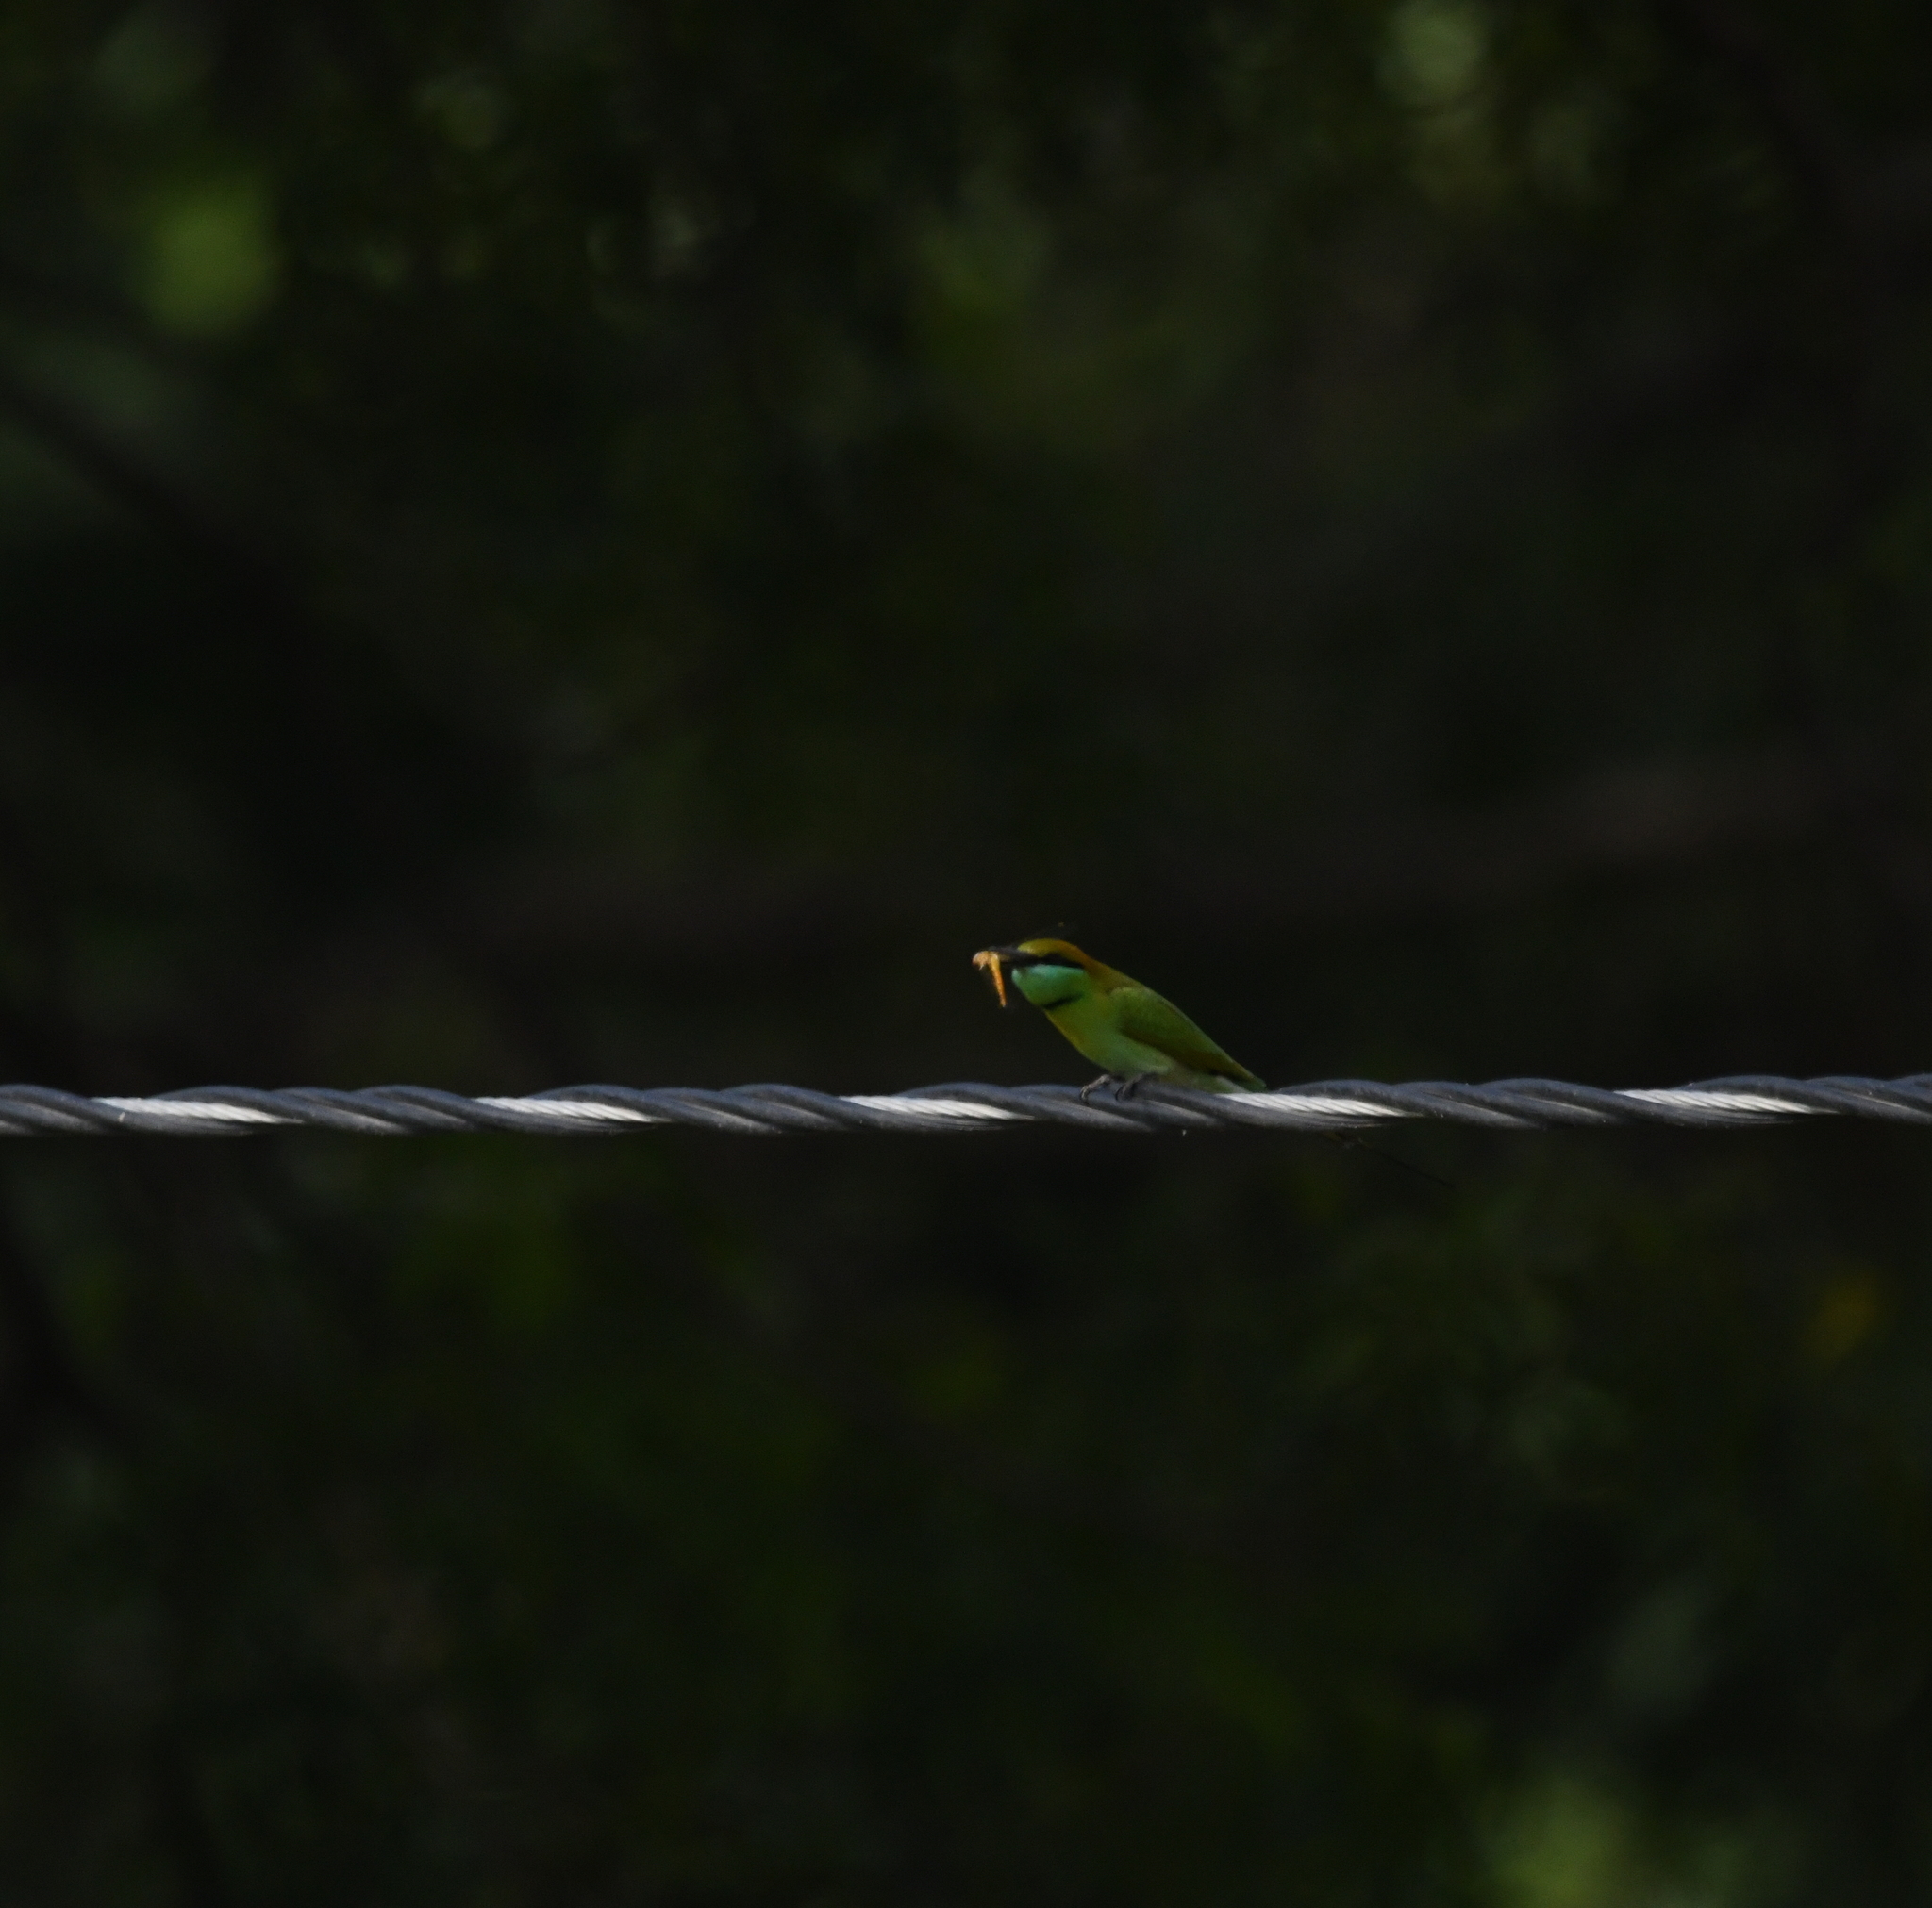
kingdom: Animalia
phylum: Chordata
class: Aves
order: Coraciiformes
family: Meropidae
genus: Merops
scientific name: Merops orientalis
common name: Green bee-eater
